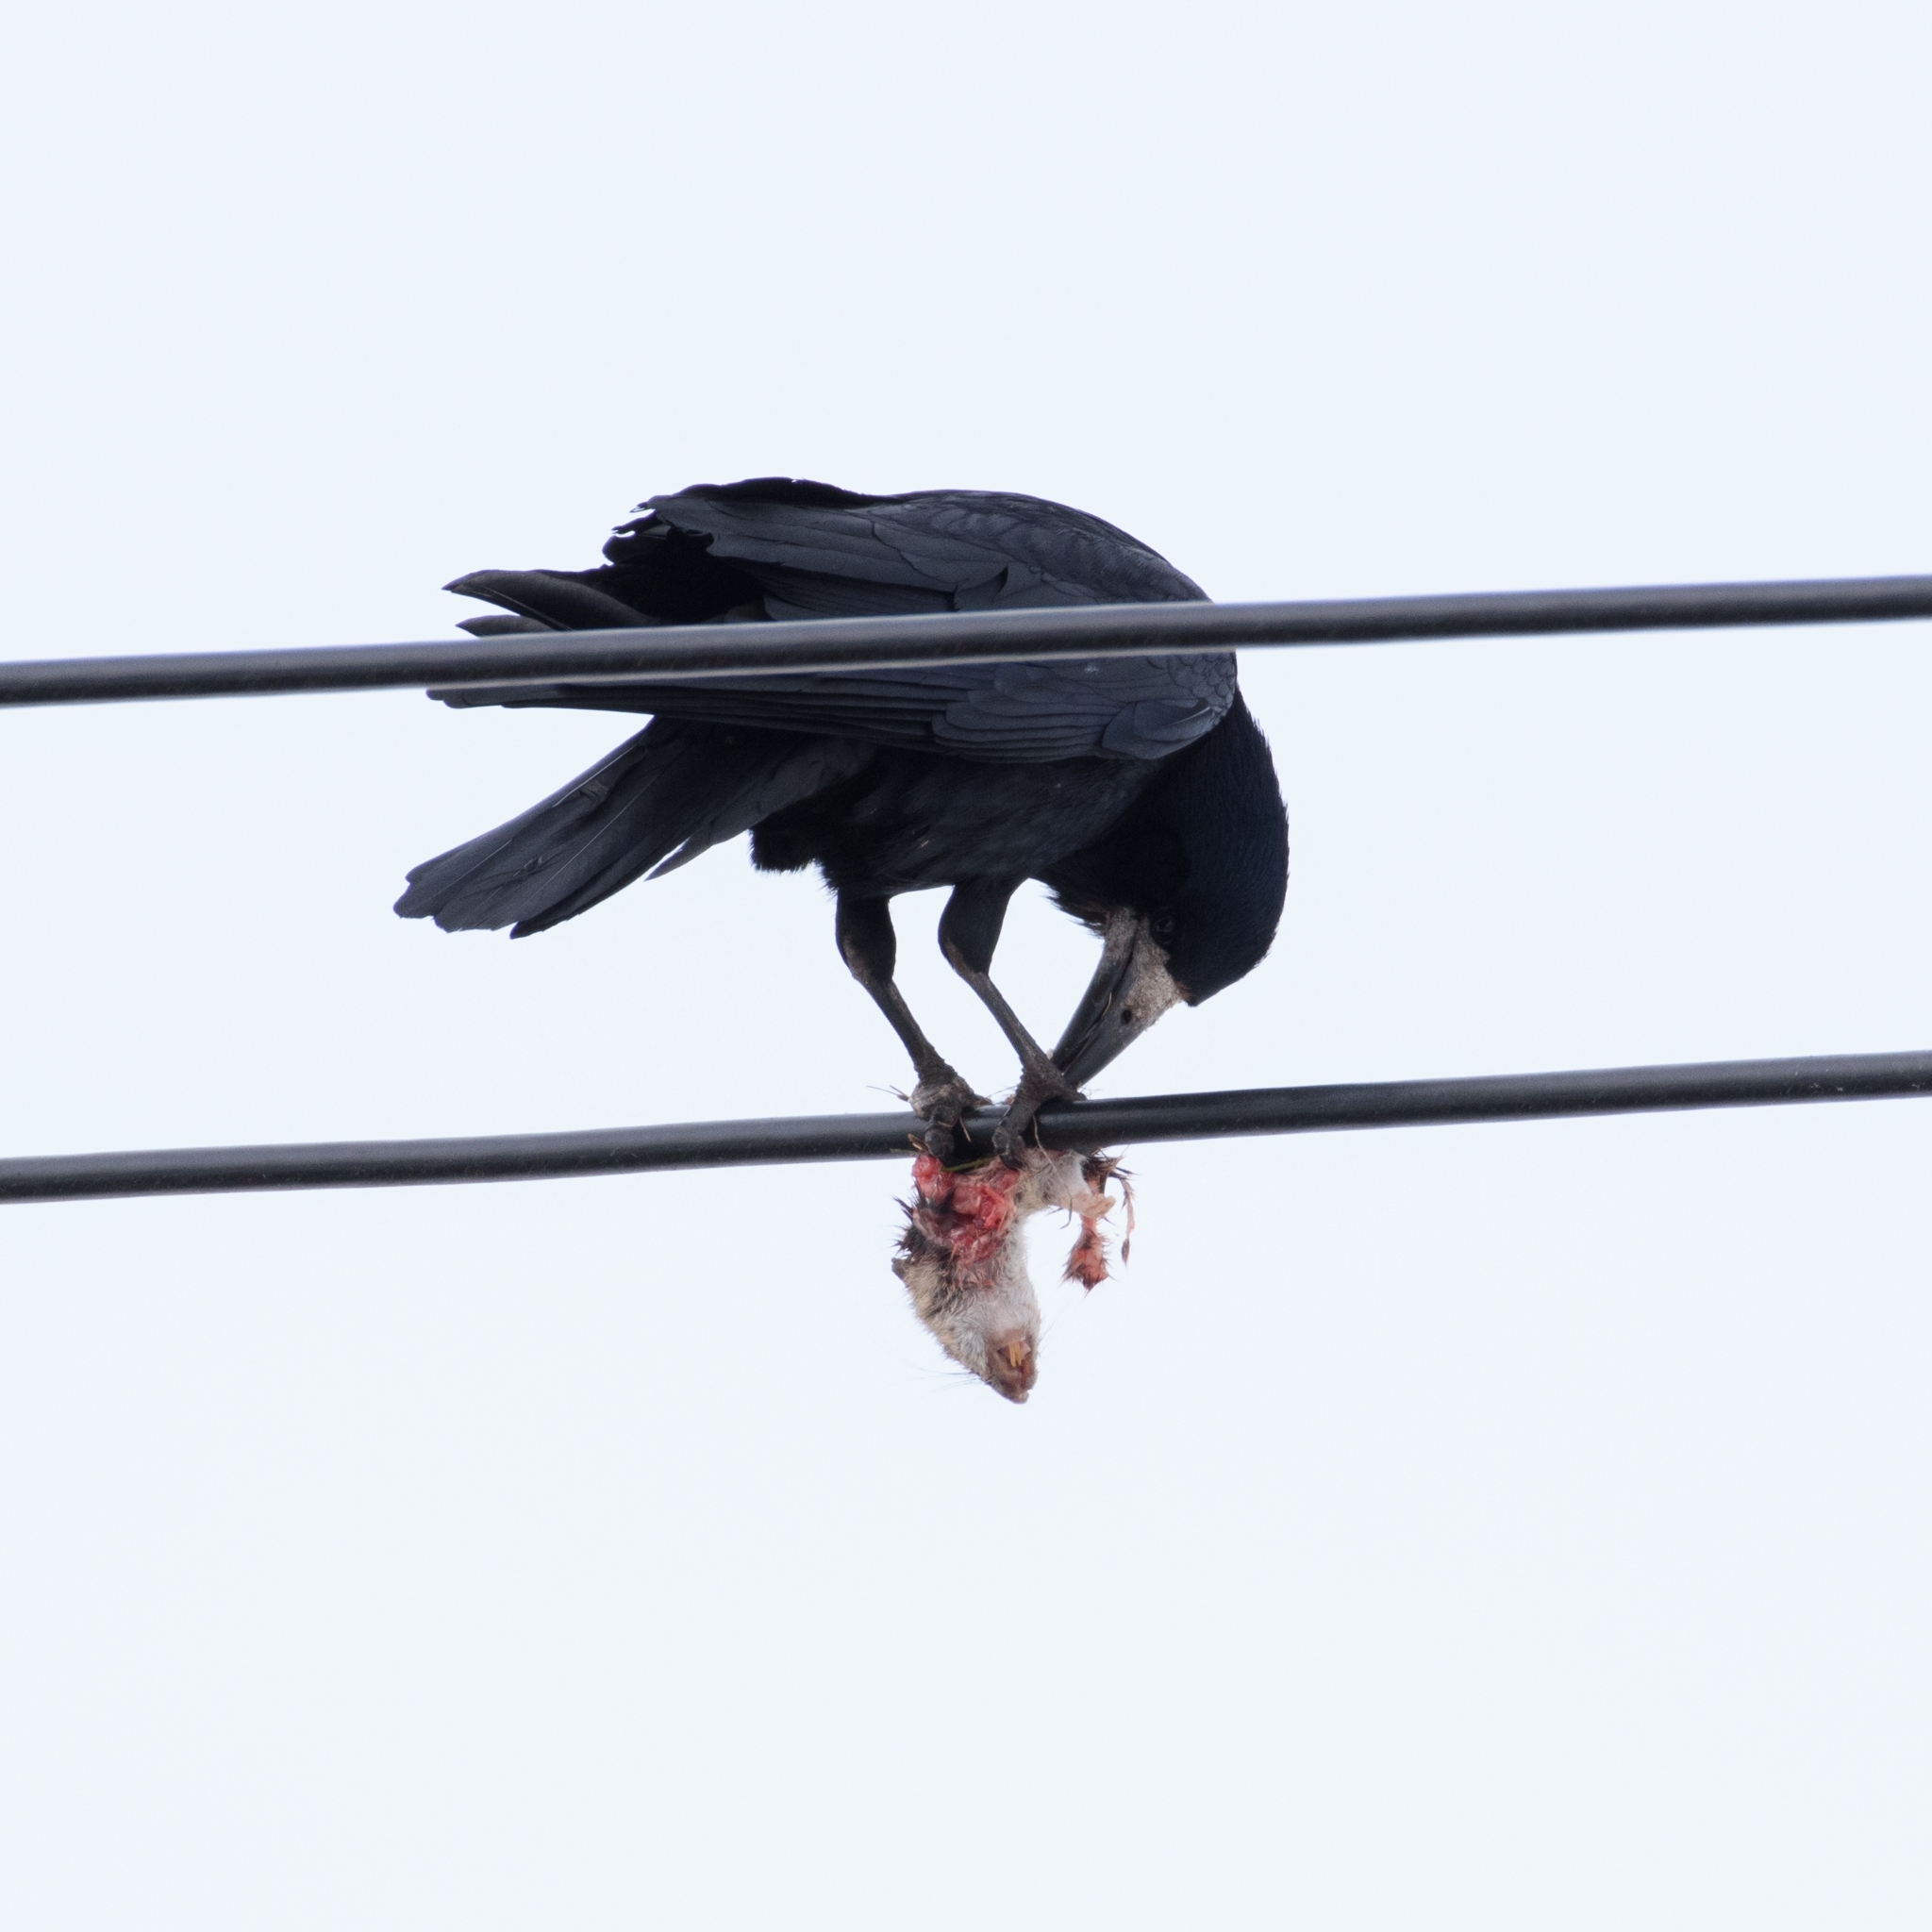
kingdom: Animalia
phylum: Chordata
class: Mammalia
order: Rodentia
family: Muridae
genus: Rattus
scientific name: Rattus norvegicus
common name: Brown rat
